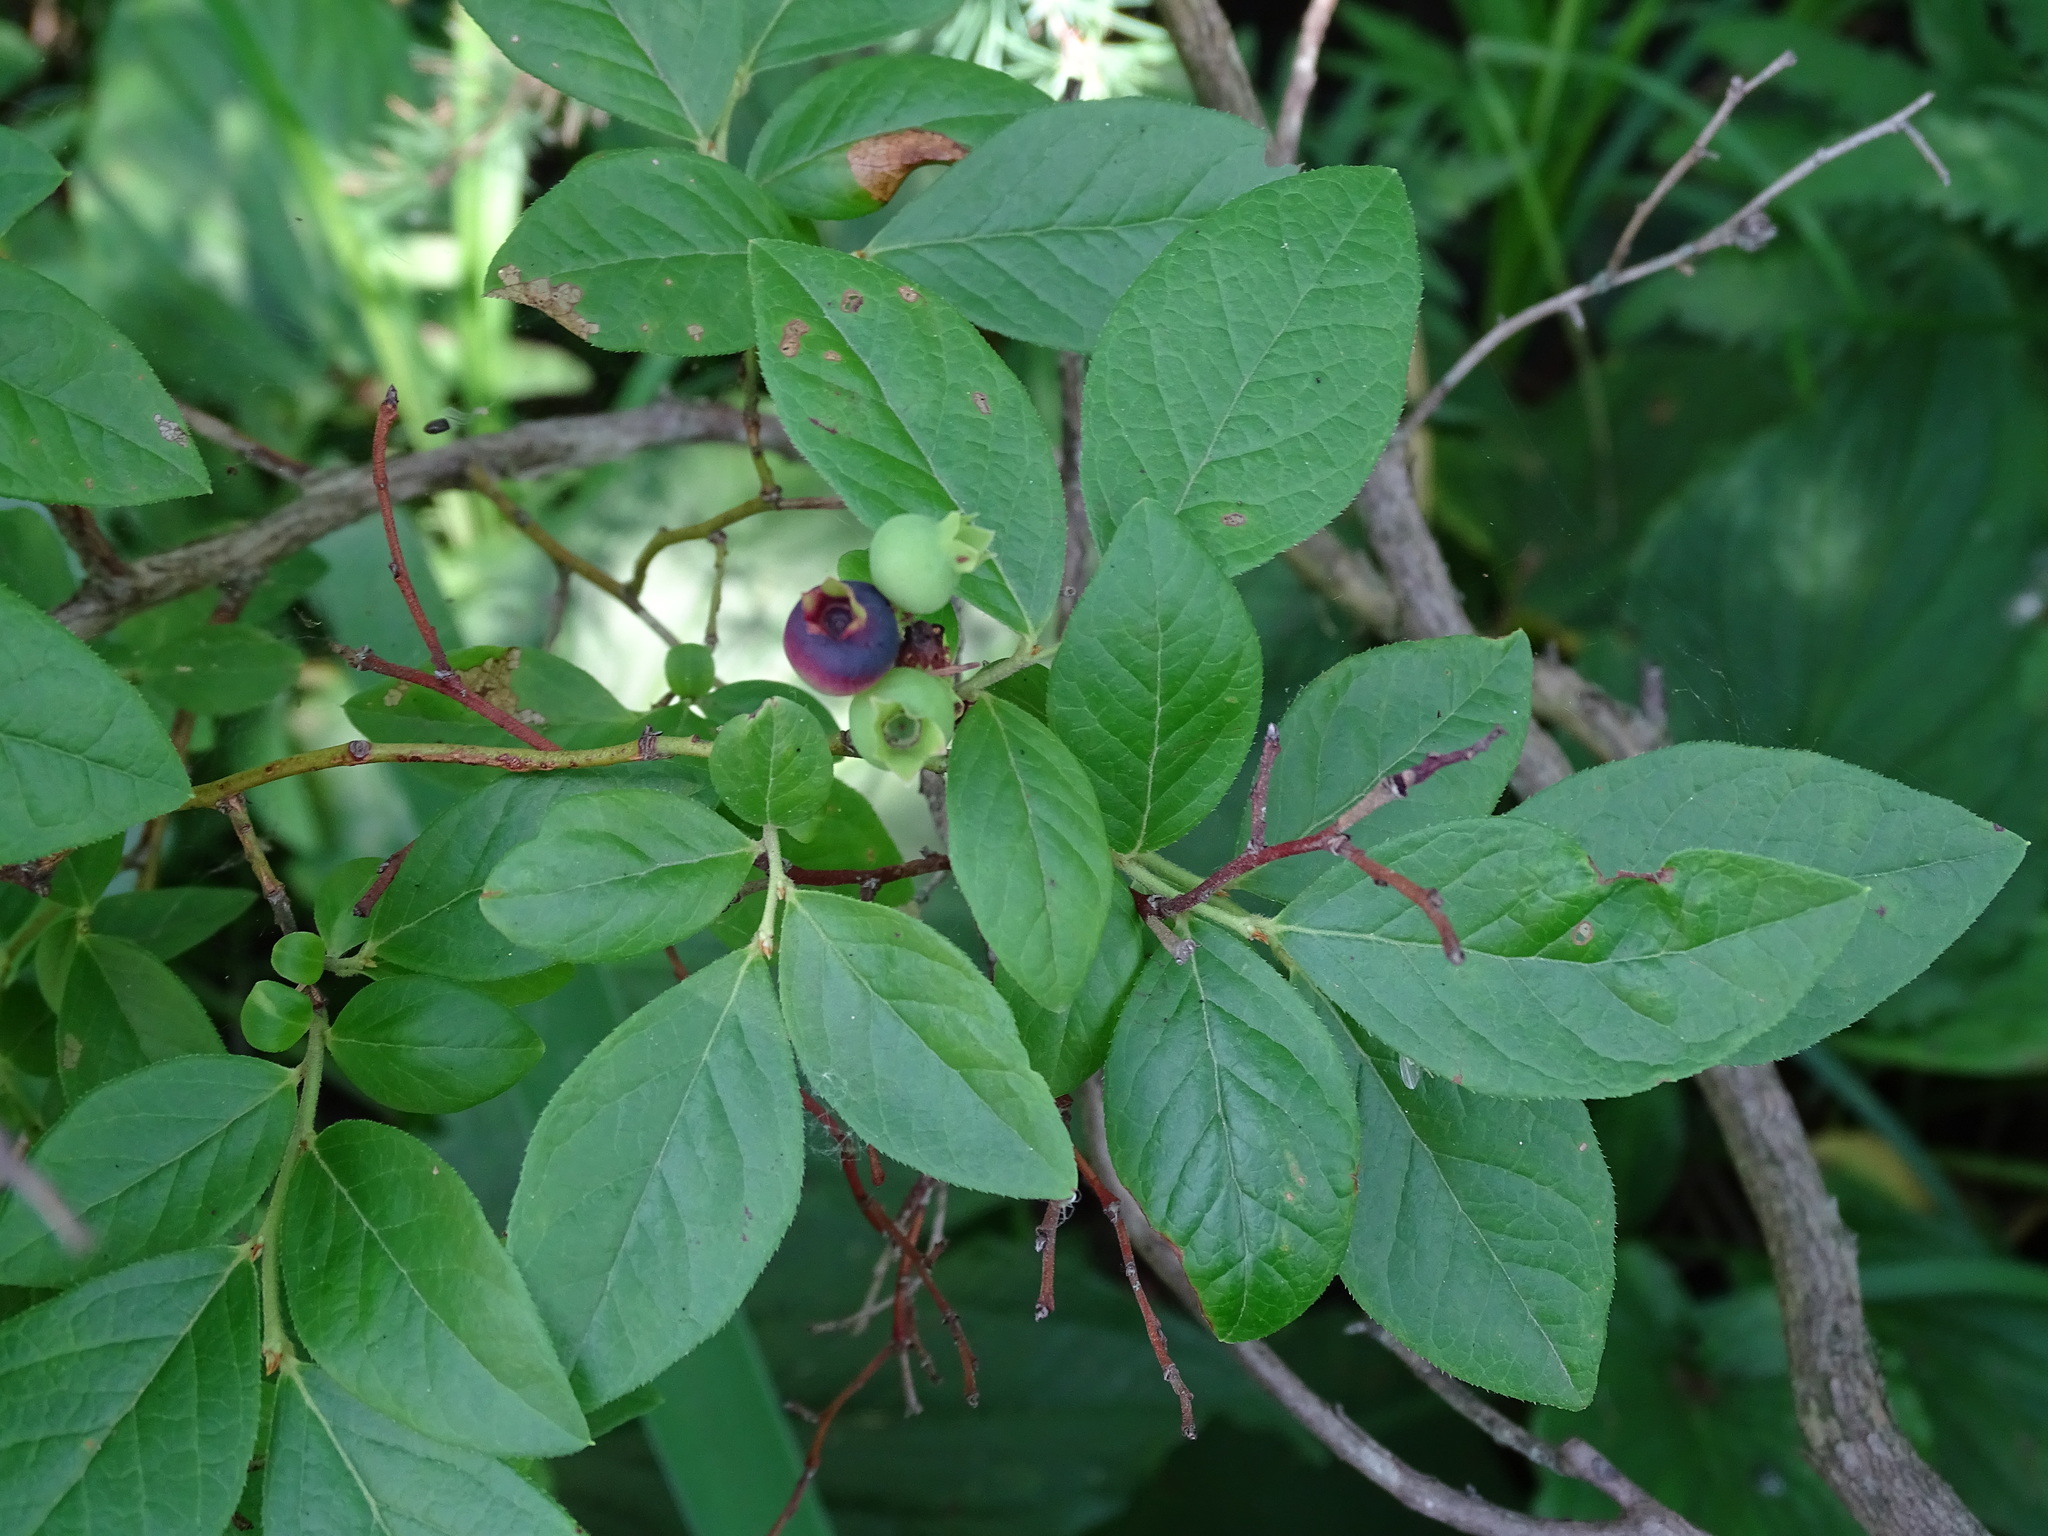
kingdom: Plantae
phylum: Tracheophyta
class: Magnoliopsida
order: Ericales
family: Ericaceae
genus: Vaccinium
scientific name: Vaccinium corymbosum
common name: Blueberry
